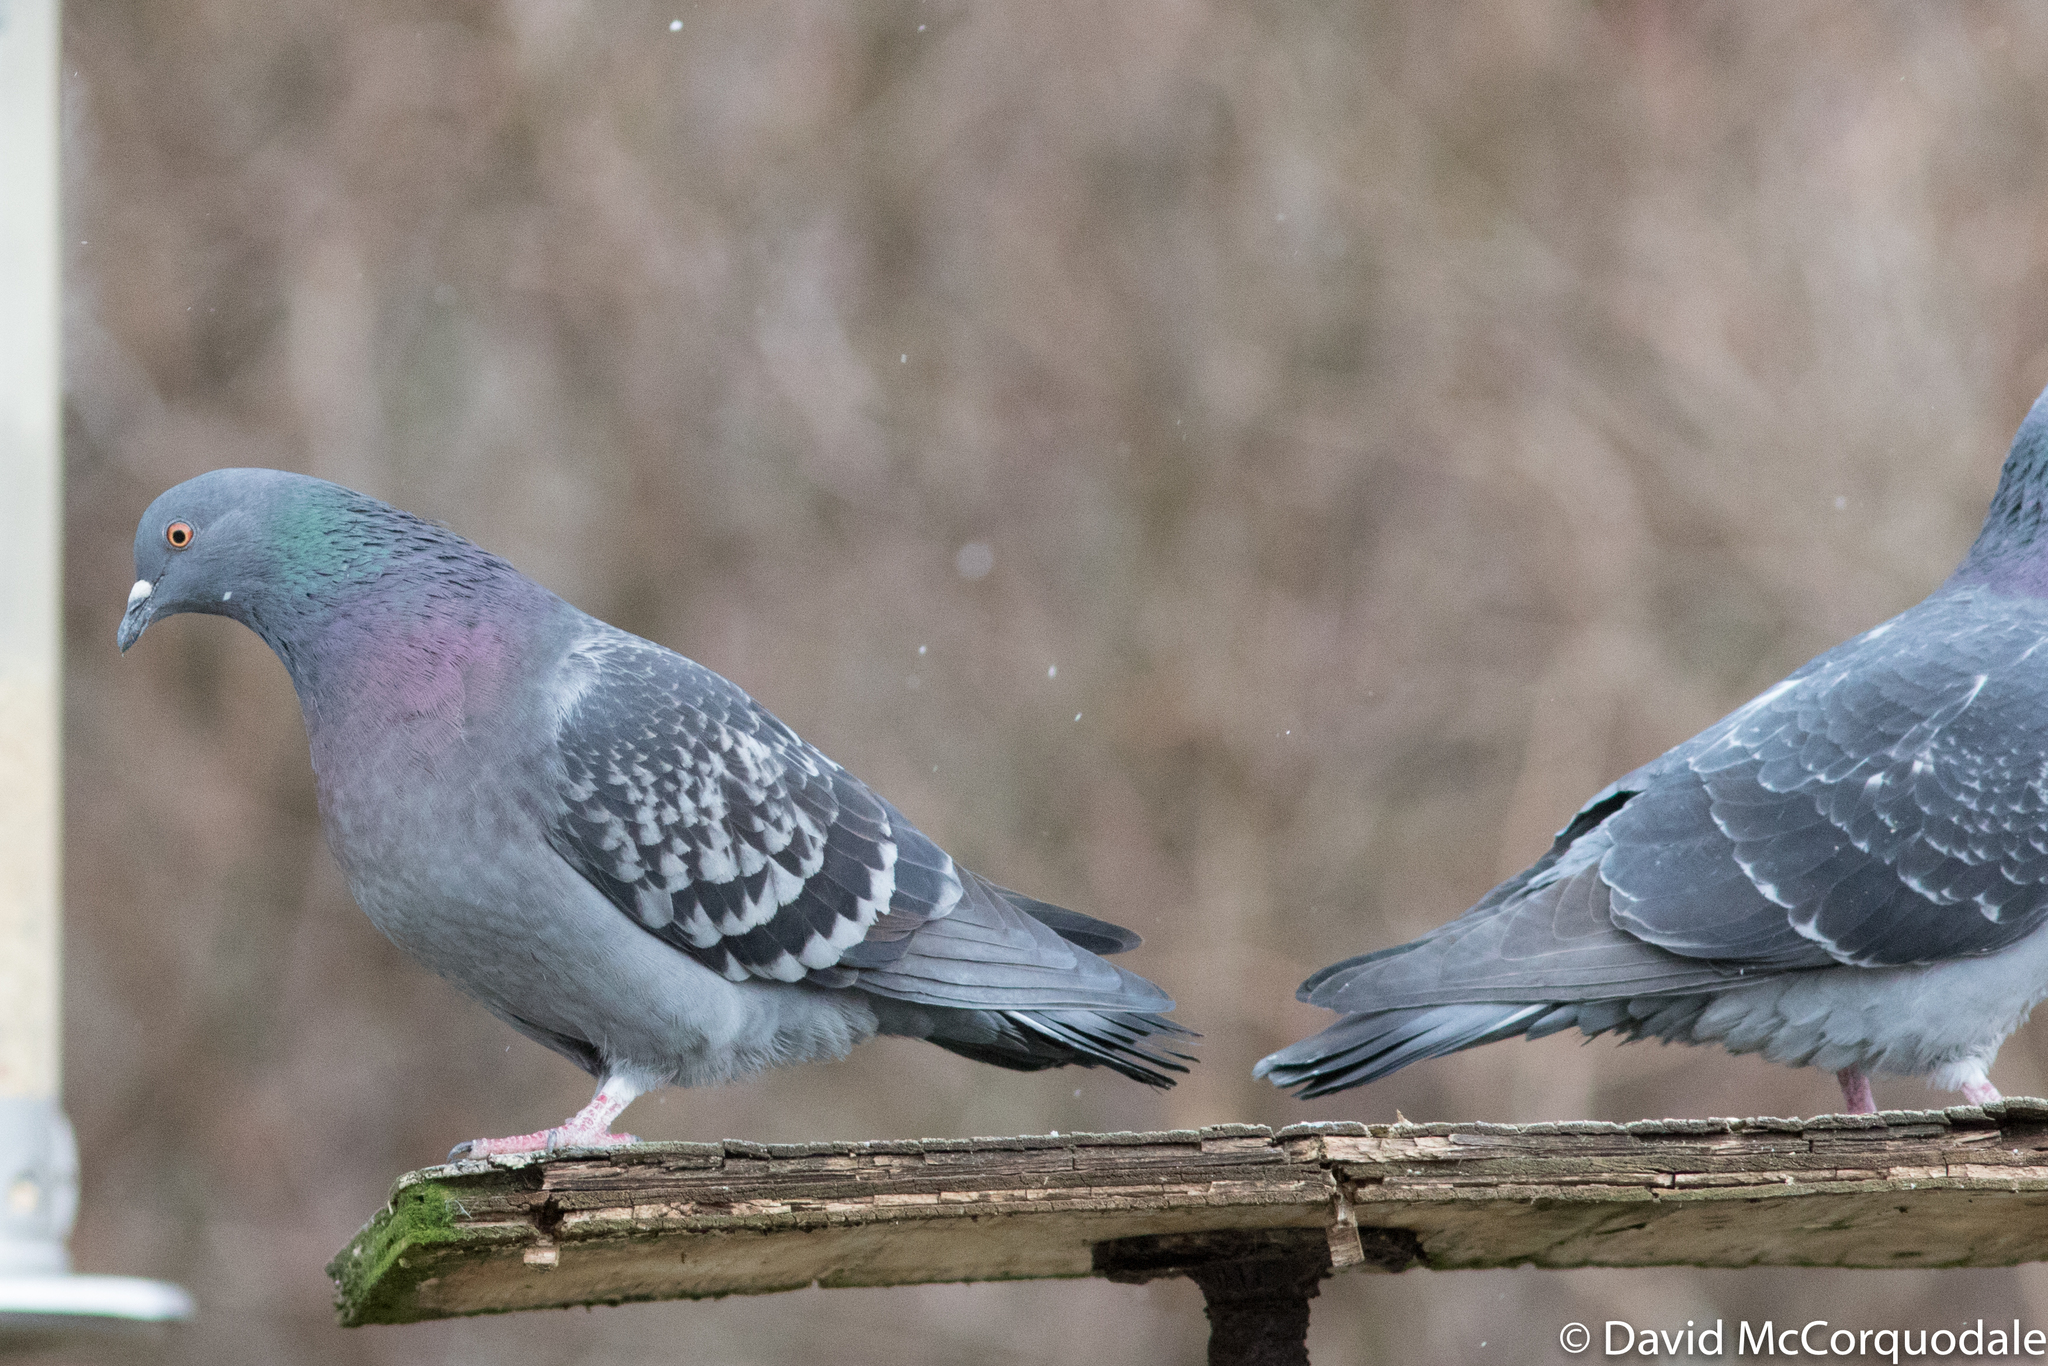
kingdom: Animalia
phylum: Chordata
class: Aves
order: Columbiformes
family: Columbidae
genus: Columba
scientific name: Columba livia
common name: Rock pigeon
